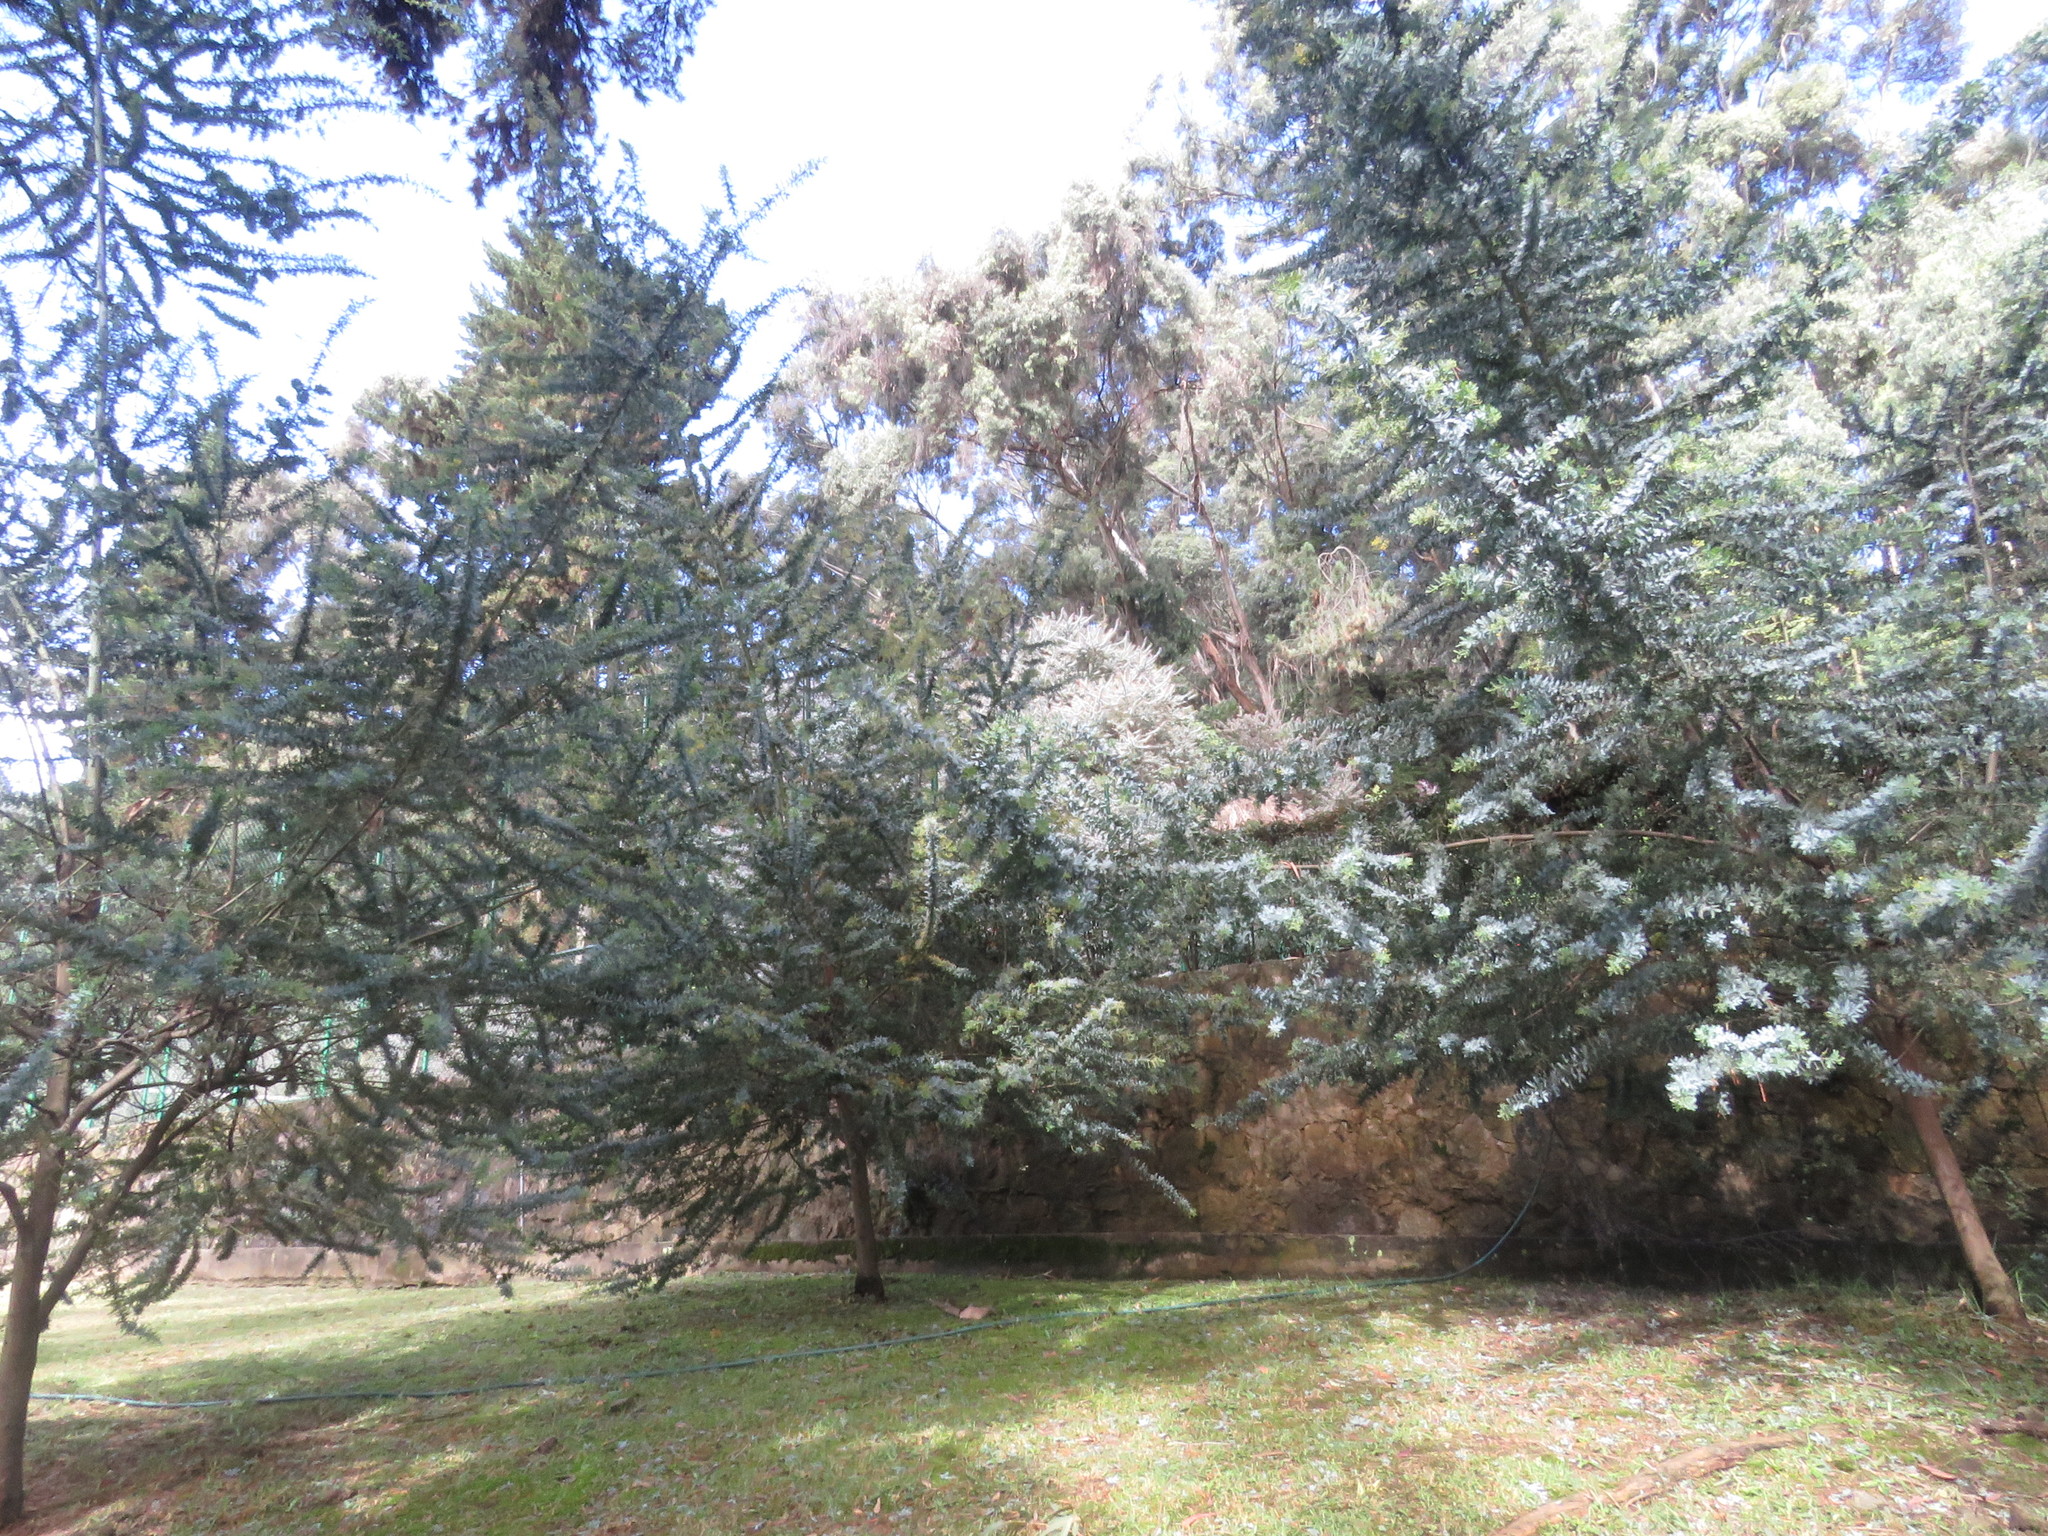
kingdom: Plantae
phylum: Tracheophyta
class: Magnoliopsida
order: Fabales
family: Fabaceae
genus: Acacia
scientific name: Acacia baileyana
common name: Cootamundra wattle
